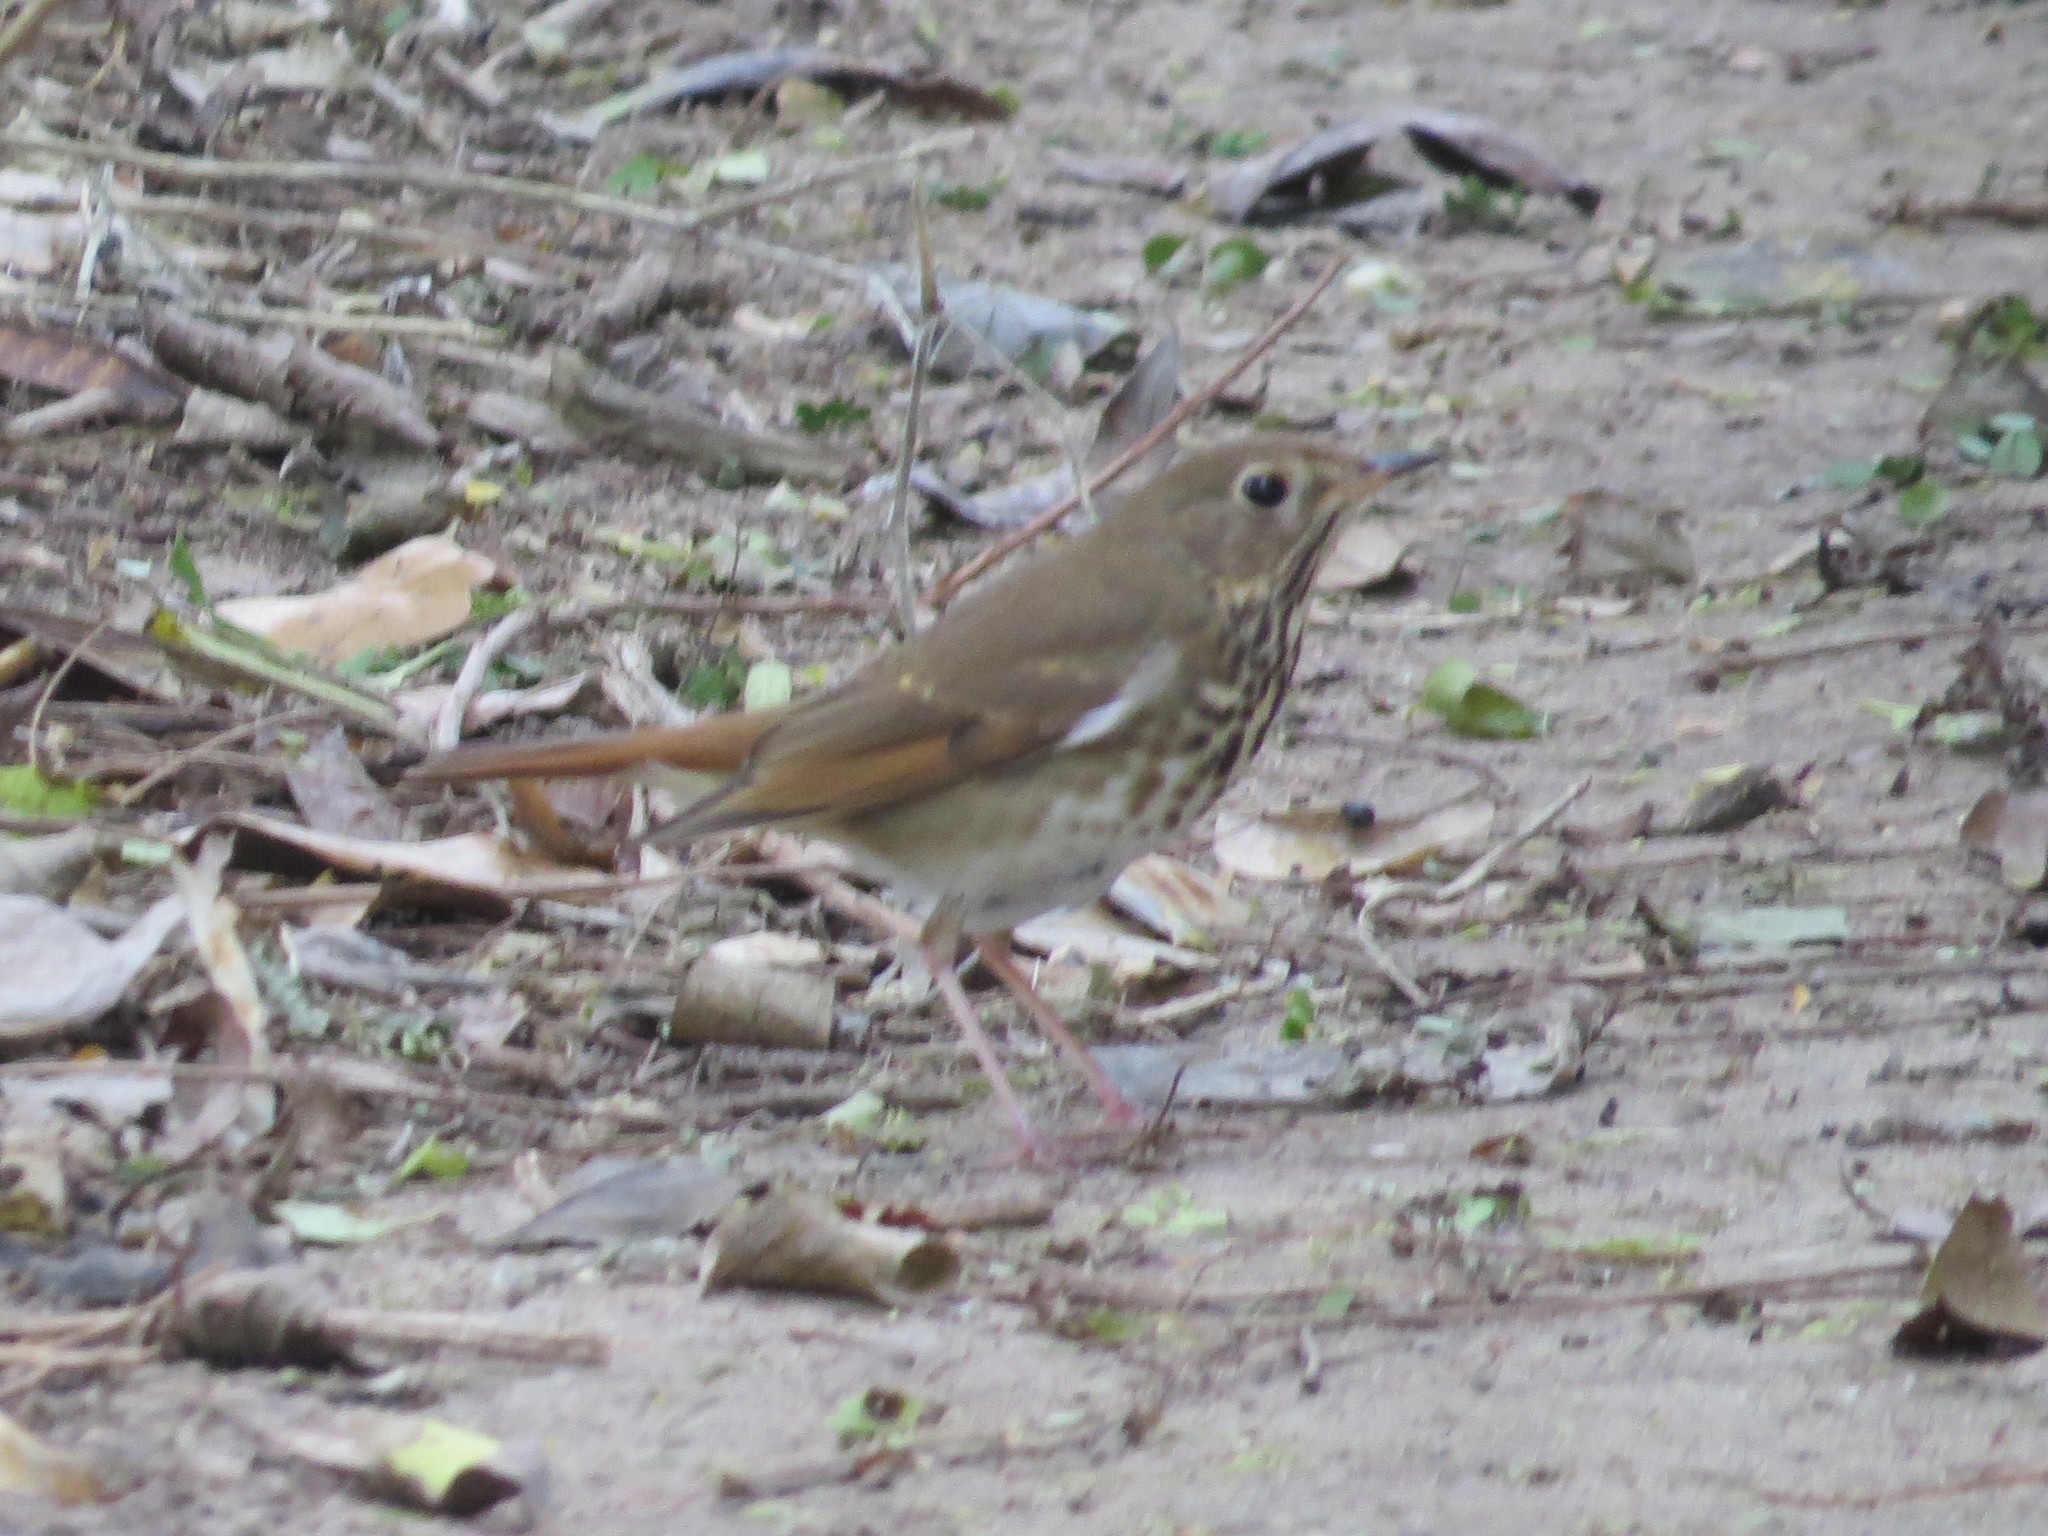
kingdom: Animalia
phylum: Chordata
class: Aves
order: Passeriformes
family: Turdidae
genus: Catharus
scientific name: Catharus guttatus
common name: Hermit thrush
